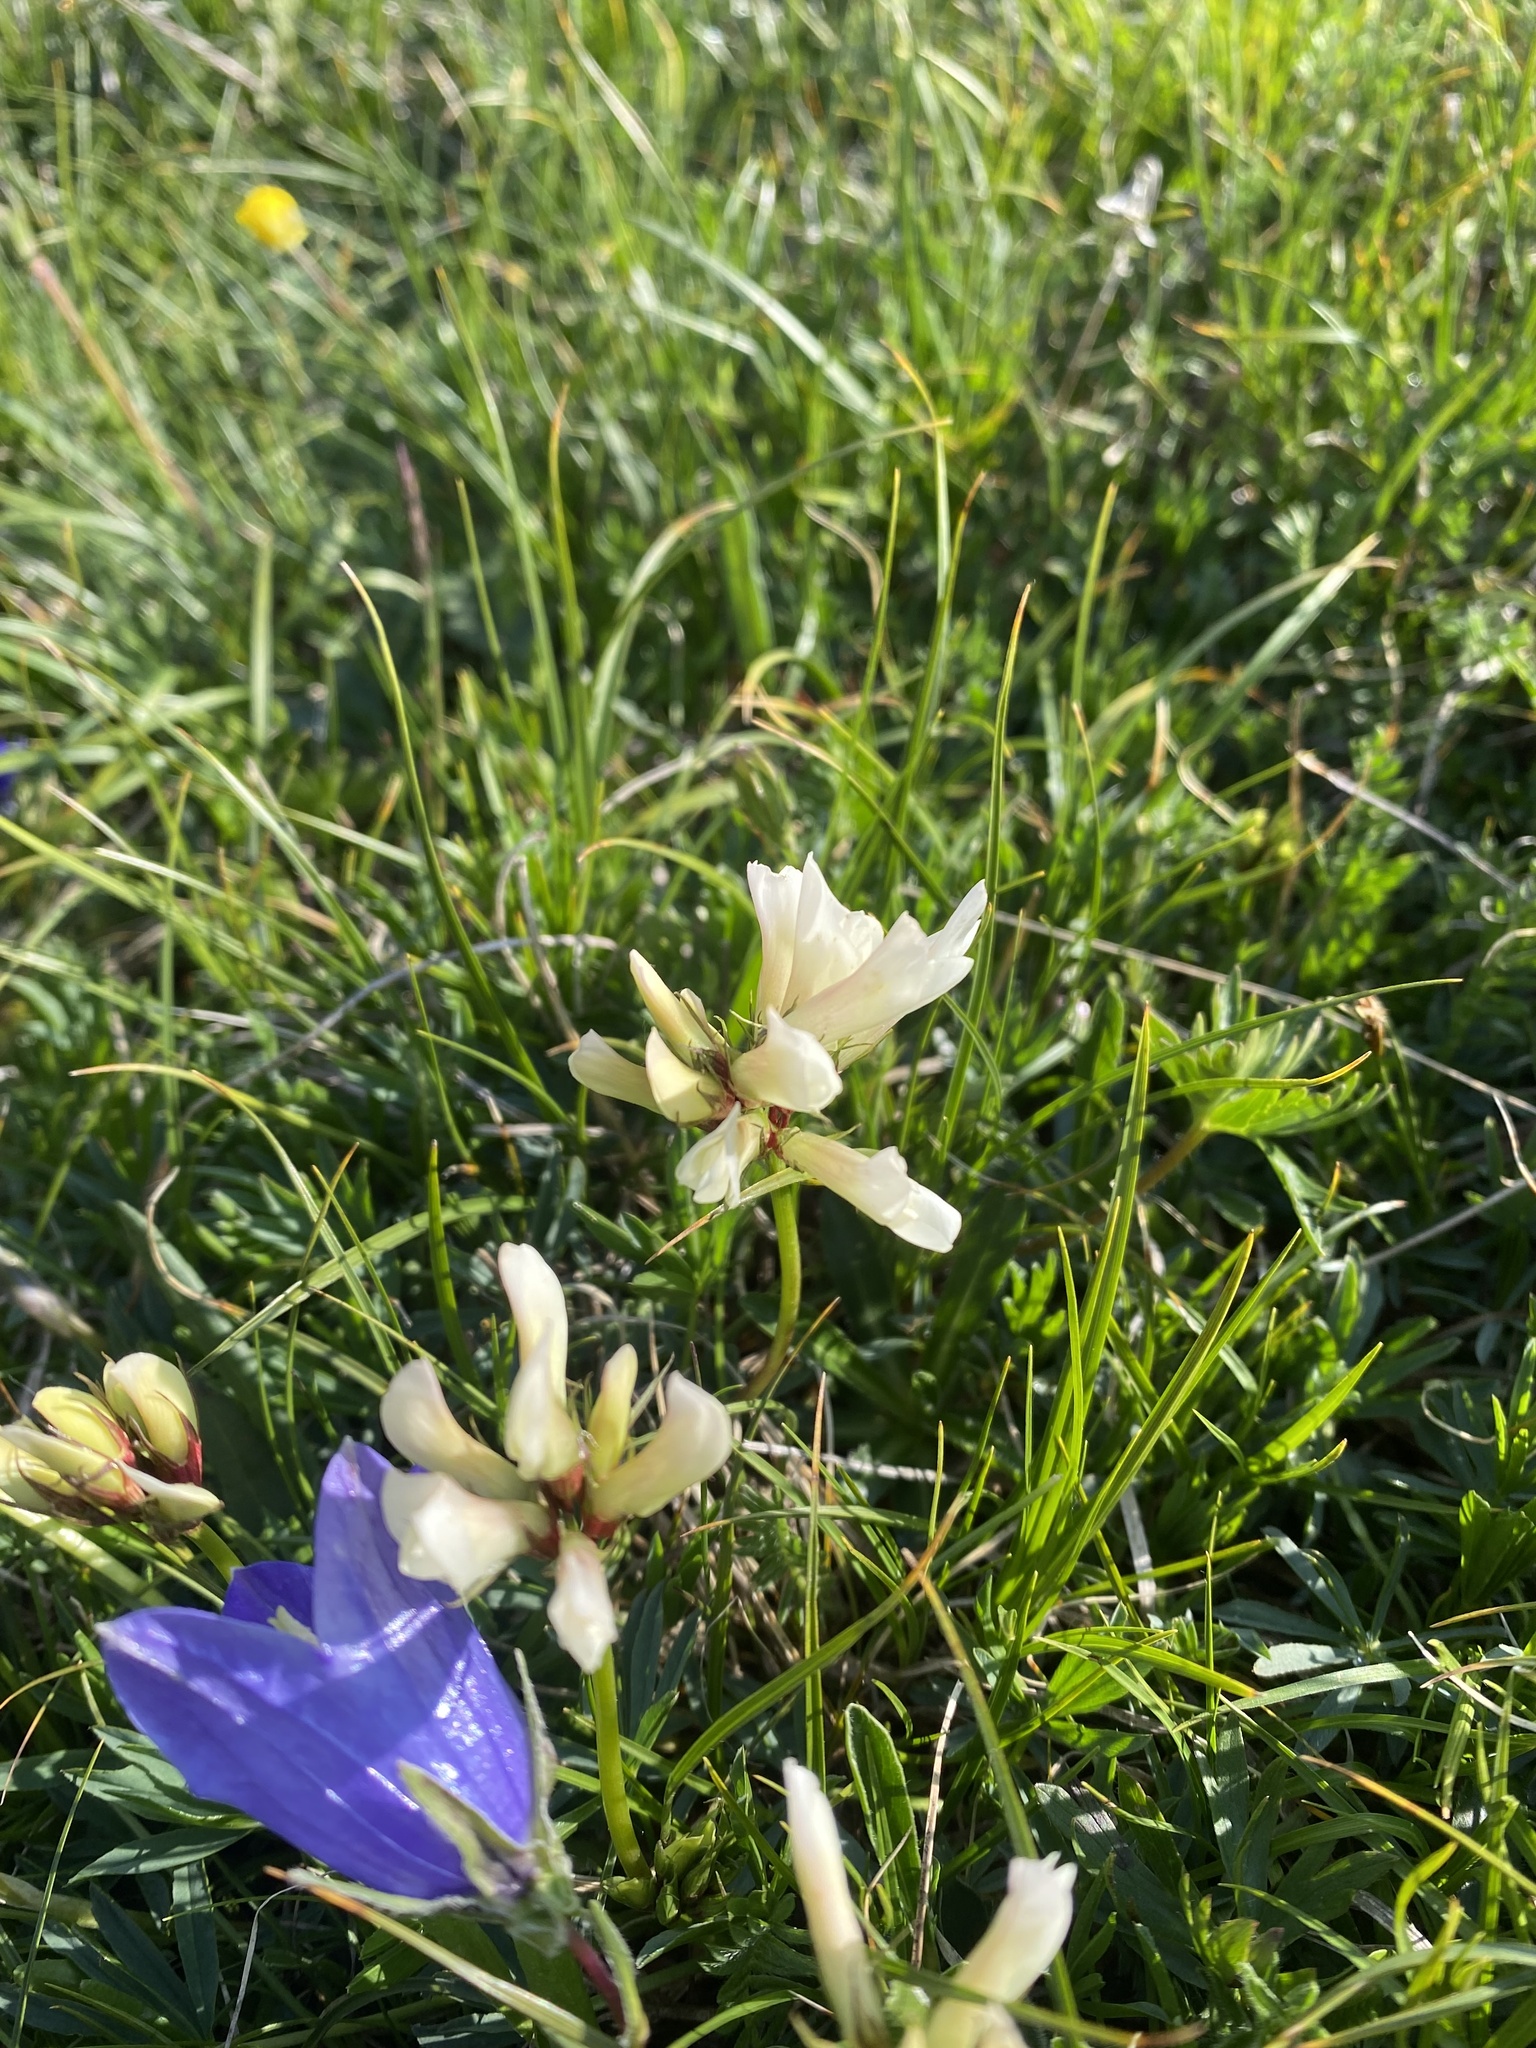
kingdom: Plantae
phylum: Tracheophyta
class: Magnoliopsida
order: Fabales
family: Fabaceae
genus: Trifolium
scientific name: Trifolium polyphyllum
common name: Many-leaf clover
